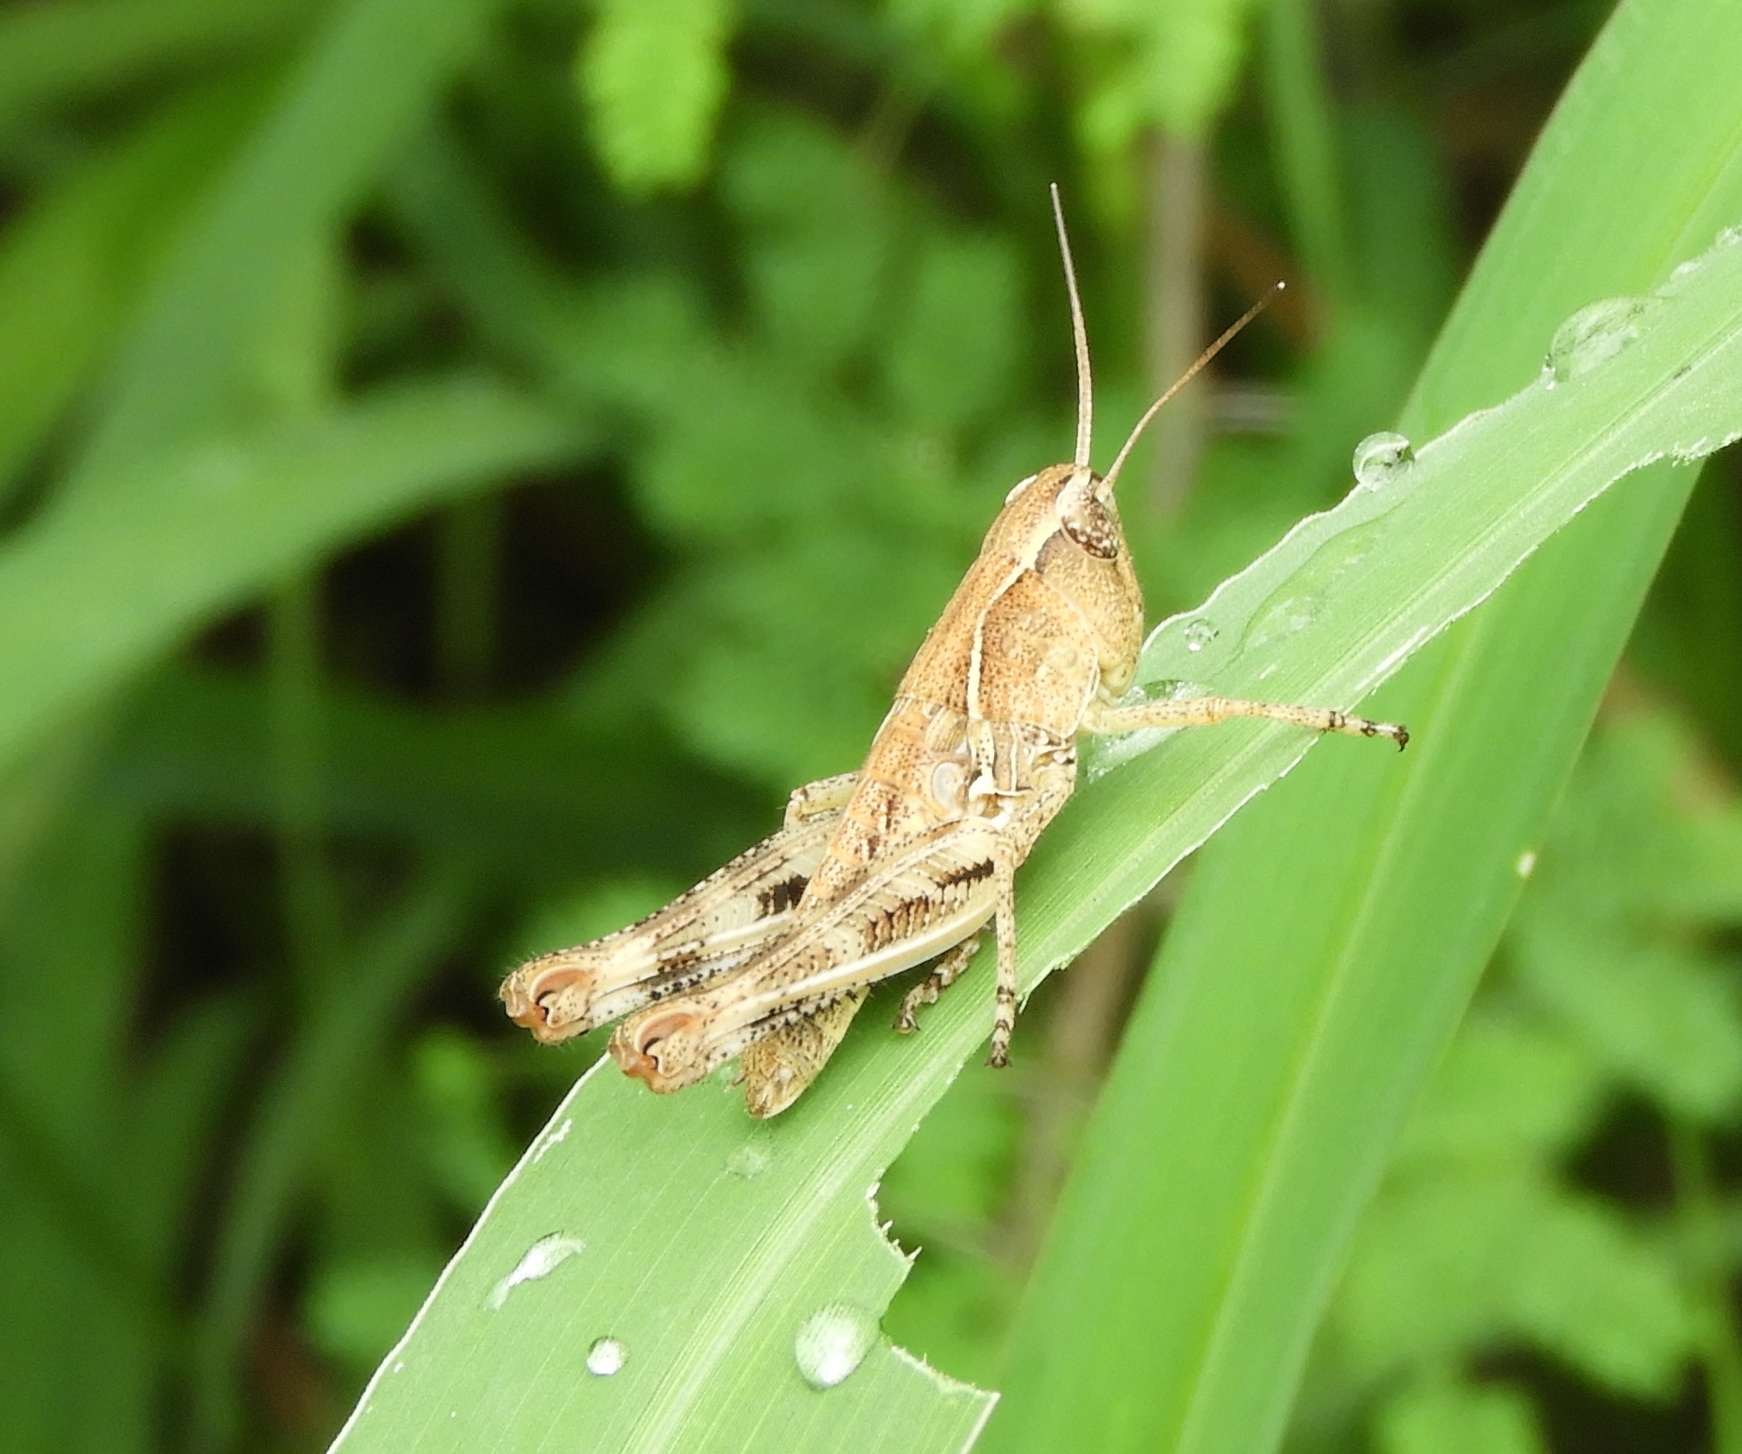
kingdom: Animalia
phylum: Arthropoda
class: Insecta
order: Orthoptera
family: Acrididae
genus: Boopedon
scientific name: Boopedon flaviventris
